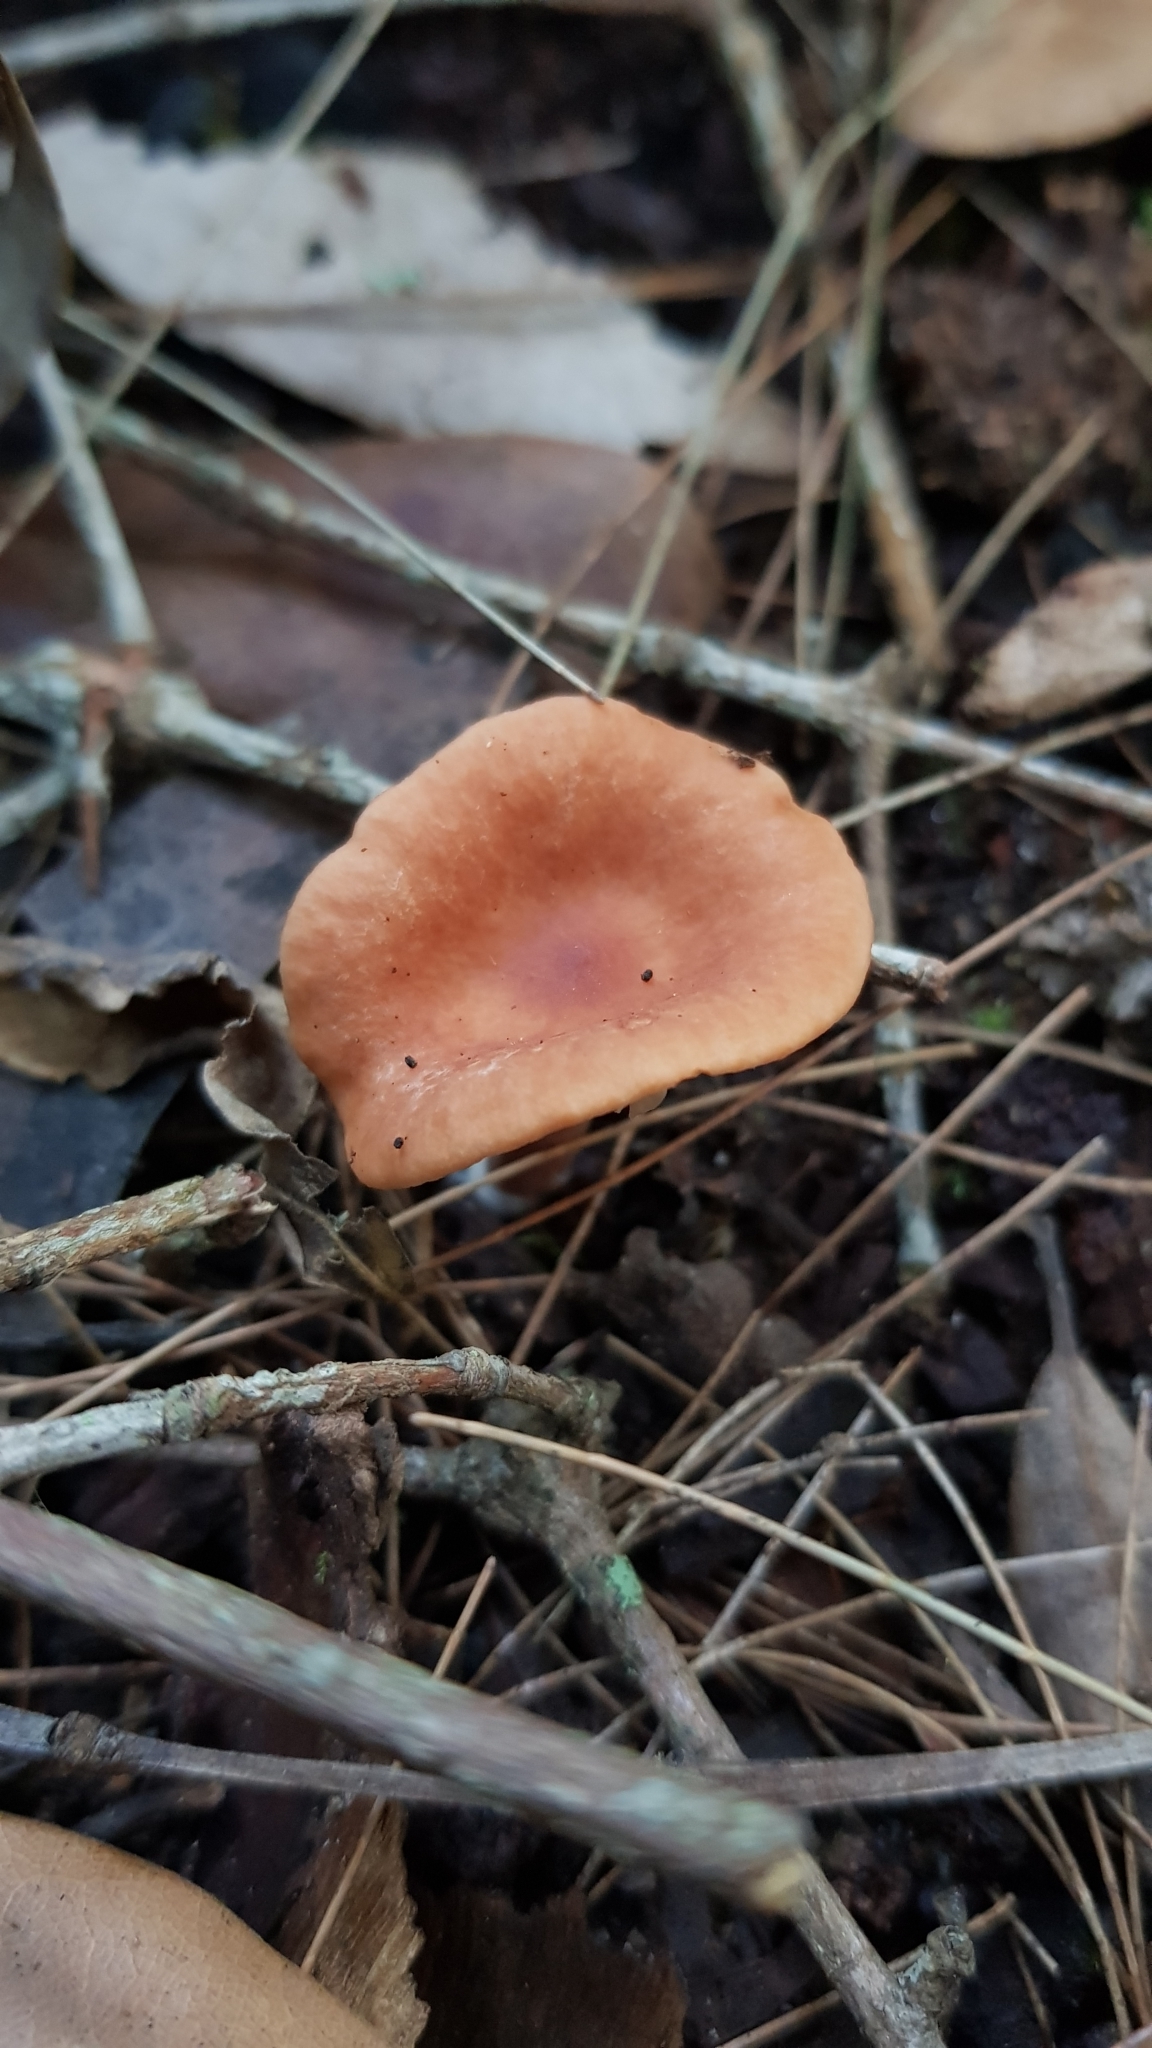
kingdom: Fungi
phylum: Basidiomycota
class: Agaricomycetes
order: Russulales
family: Russulaceae
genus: Lactarius
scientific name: Lactarius eucalypti
